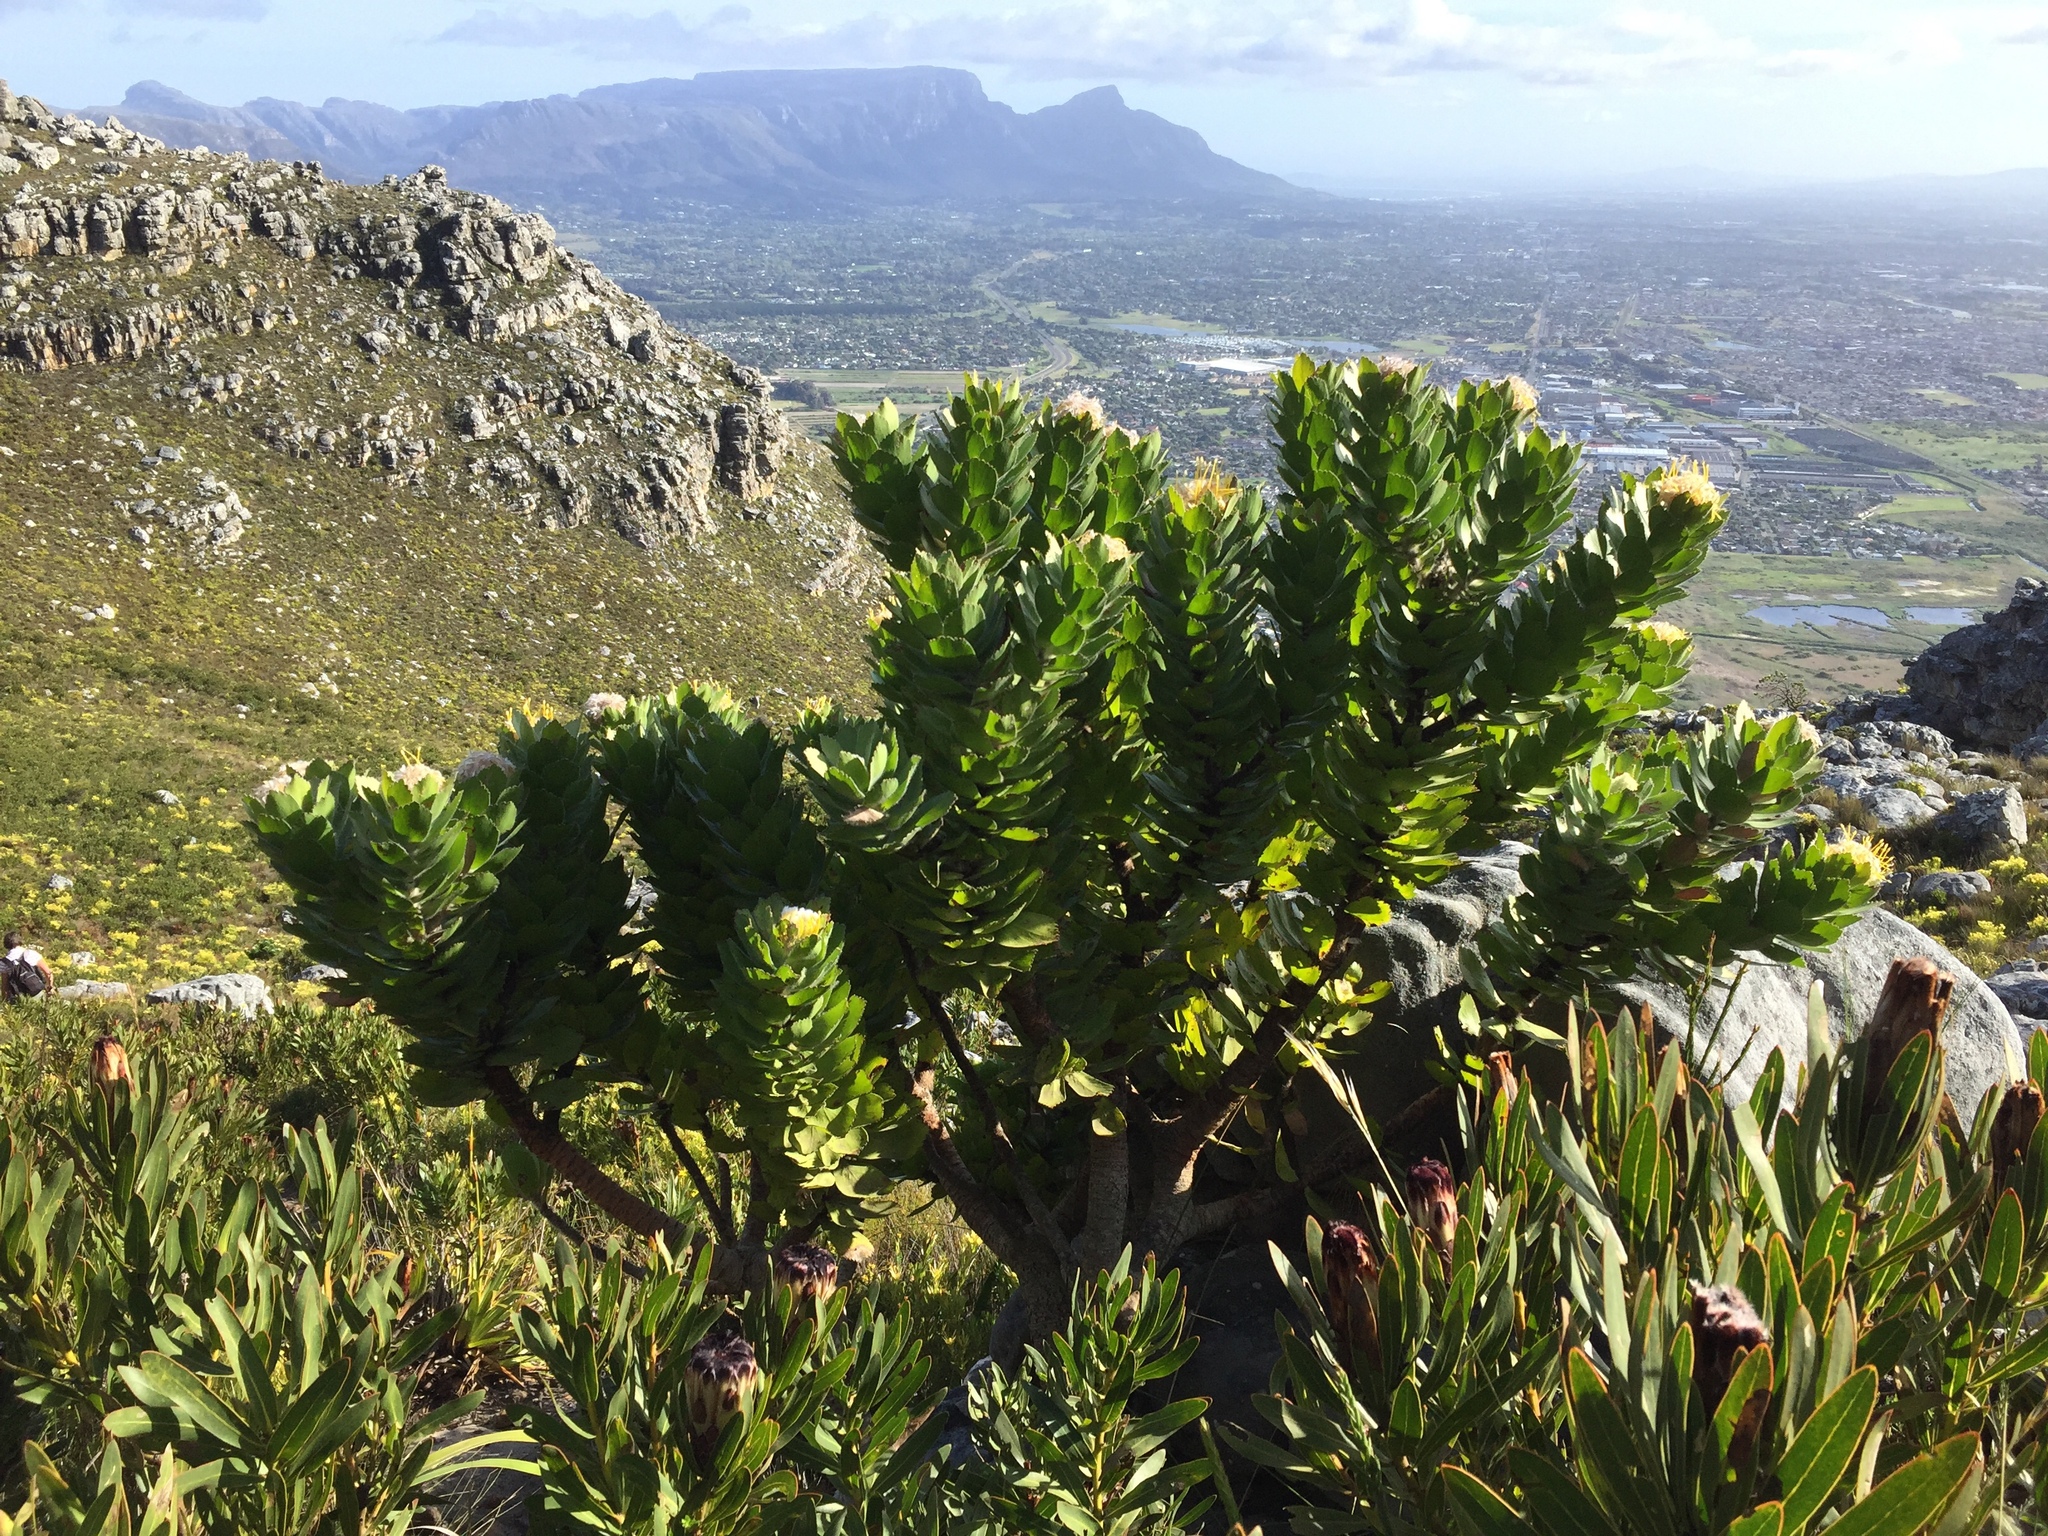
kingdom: Plantae
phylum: Tracheophyta
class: Magnoliopsida
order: Proteales
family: Proteaceae
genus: Leucospermum
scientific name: Leucospermum conocarpodendron
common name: Tree pincushion
